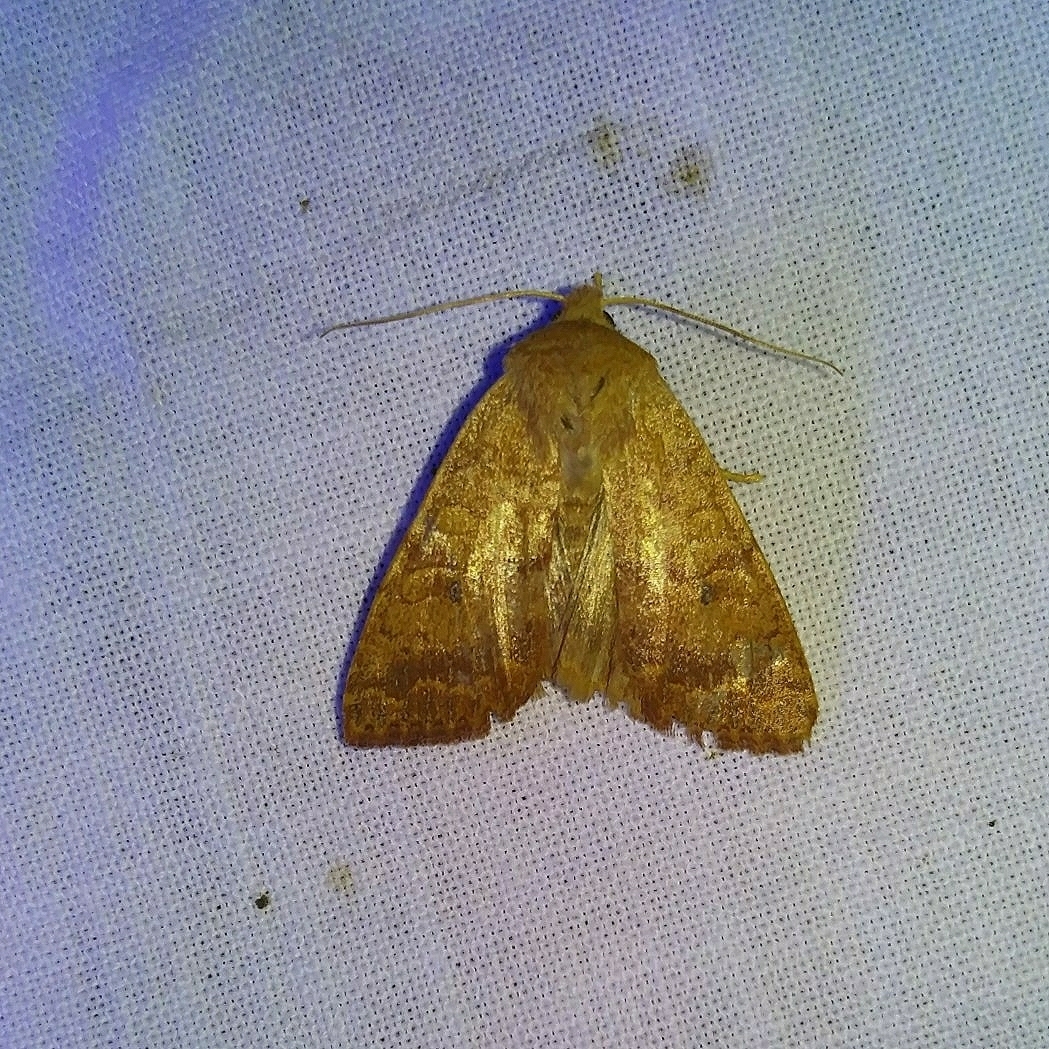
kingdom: Animalia
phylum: Arthropoda
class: Insecta
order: Lepidoptera
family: Noctuidae
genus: Agrochola
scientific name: Agrochola bicolorago
